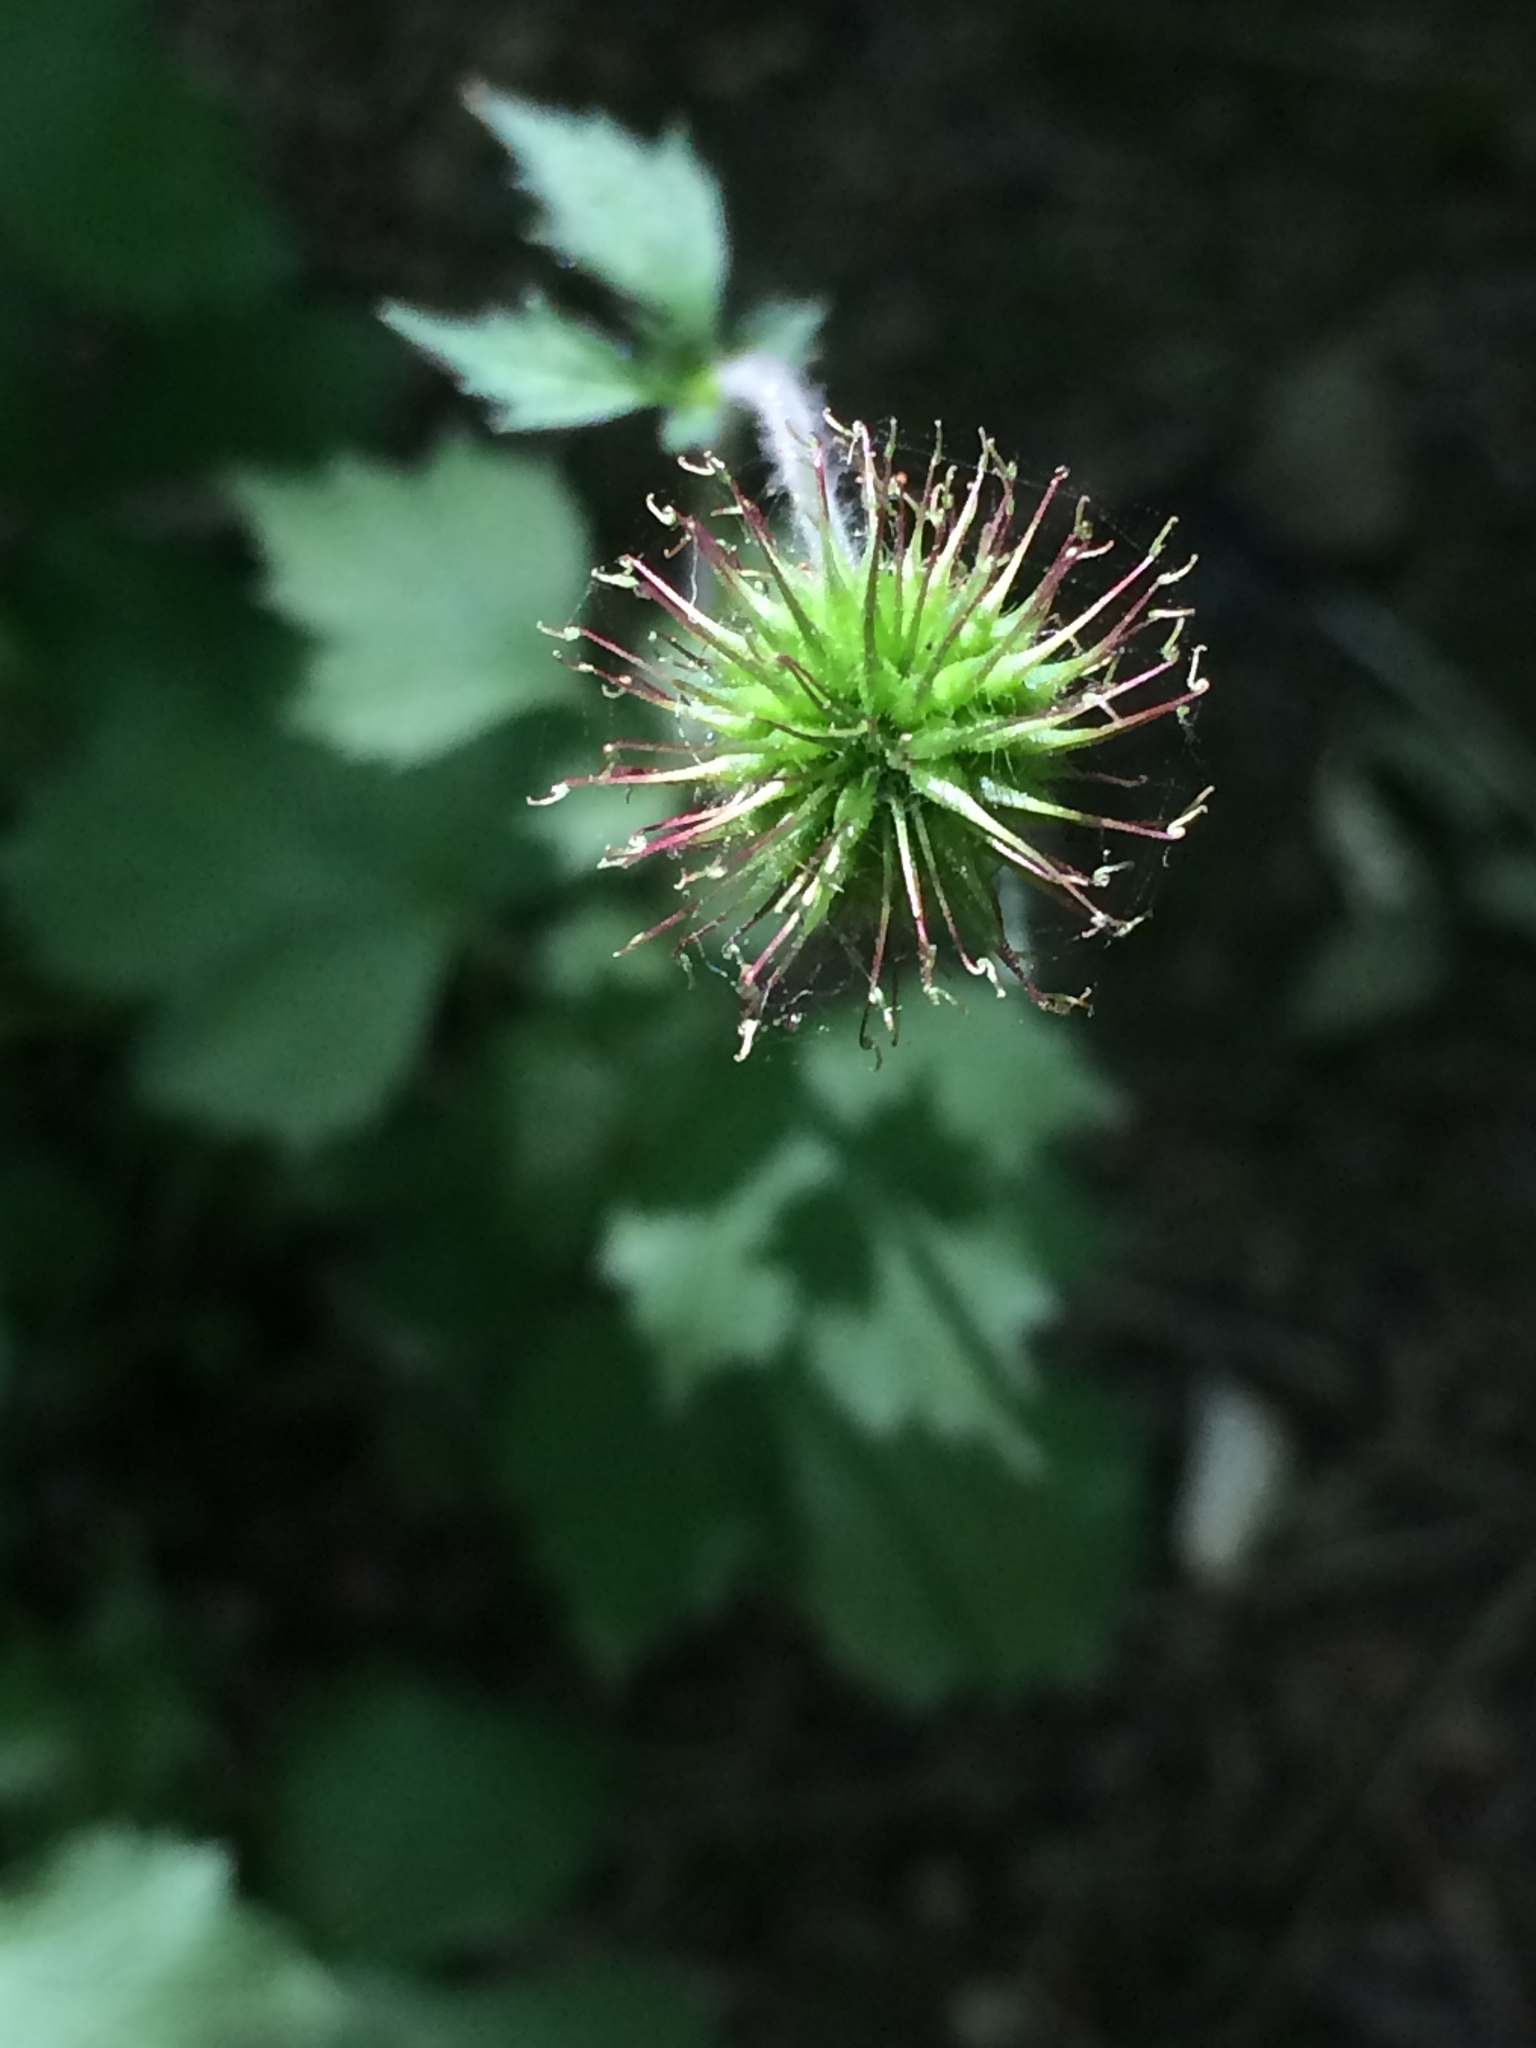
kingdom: Plantae
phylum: Tracheophyta
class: Magnoliopsida
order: Rosales
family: Rosaceae
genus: Geum
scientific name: Geum urbanum
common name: Wood avens
